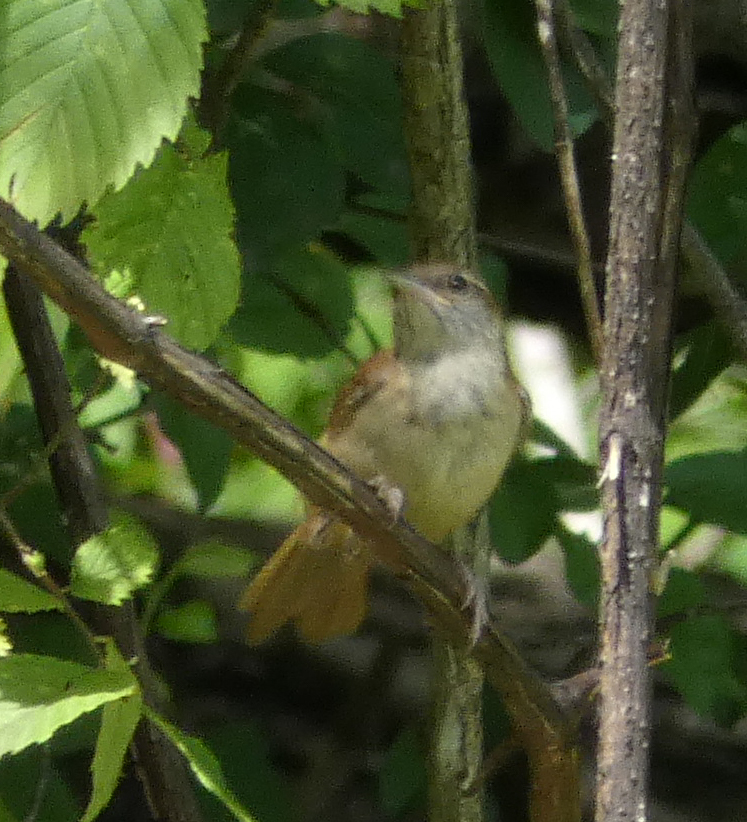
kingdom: Animalia
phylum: Chordata
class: Aves
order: Passeriformes
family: Troglodytidae
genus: Thryothorus
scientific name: Thryothorus ludovicianus
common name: Carolina wren
